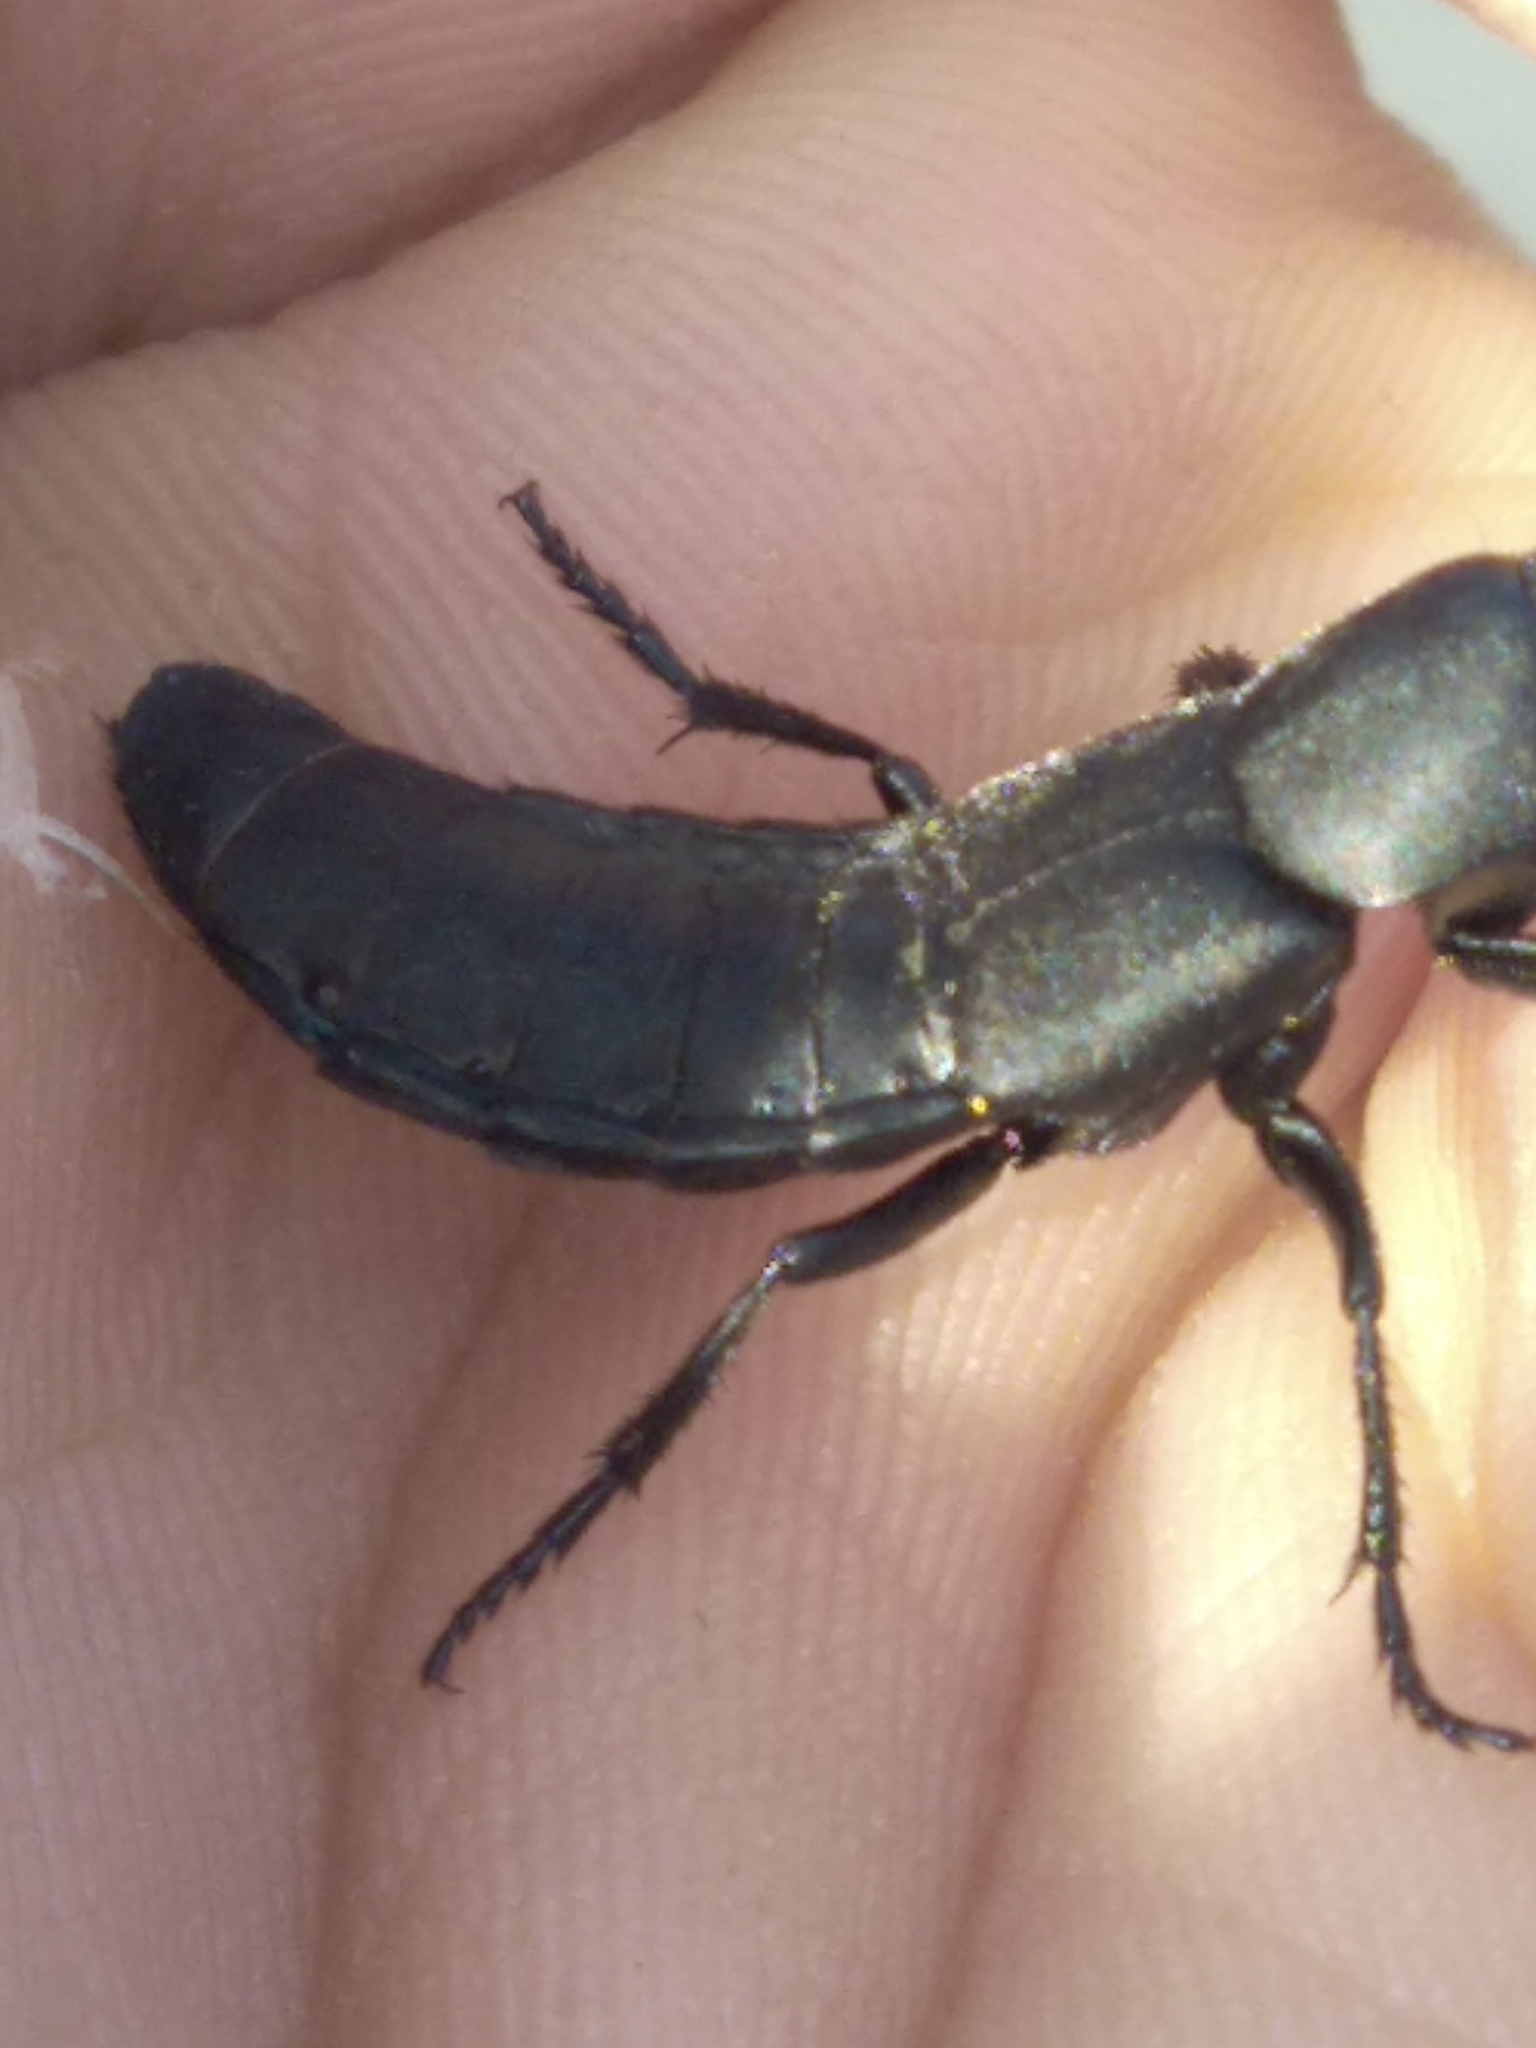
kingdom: Animalia
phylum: Arthropoda
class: Insecta
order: Coleoptera
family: Staphylinidae
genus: Ocypus
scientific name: Ocypus olens
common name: Devil's coach-horse
